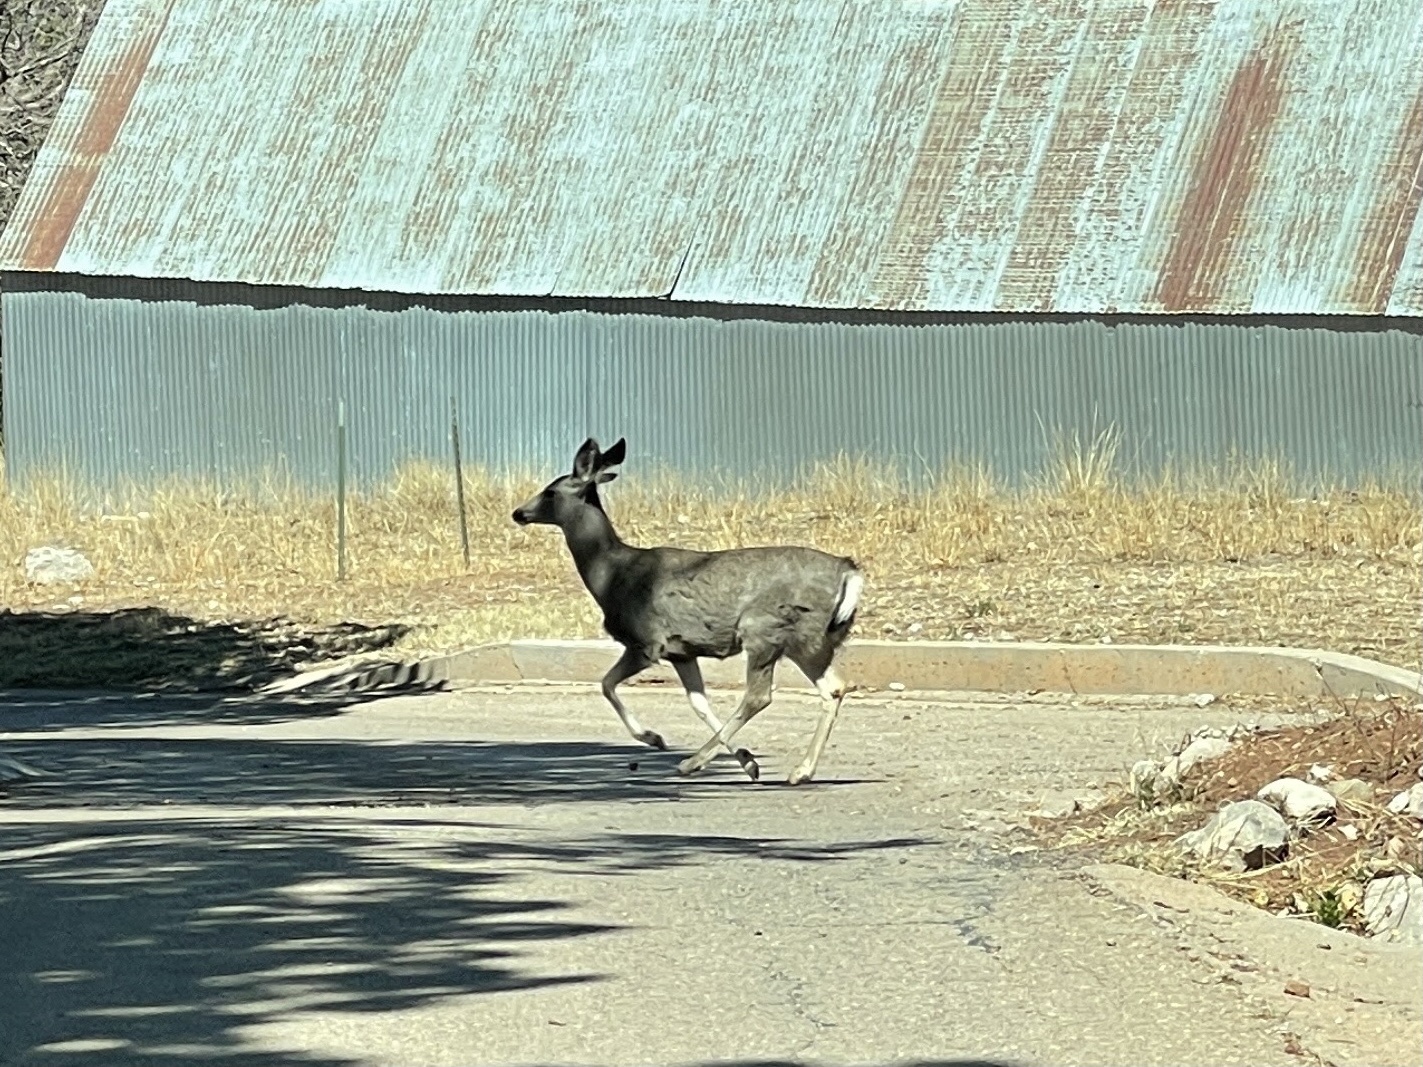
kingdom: Animalia
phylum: Chordata
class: Mammalia
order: Artiodactyla
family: Cervidae
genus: Odocoileus
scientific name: Odocoileus hemionus
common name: Mule deer
